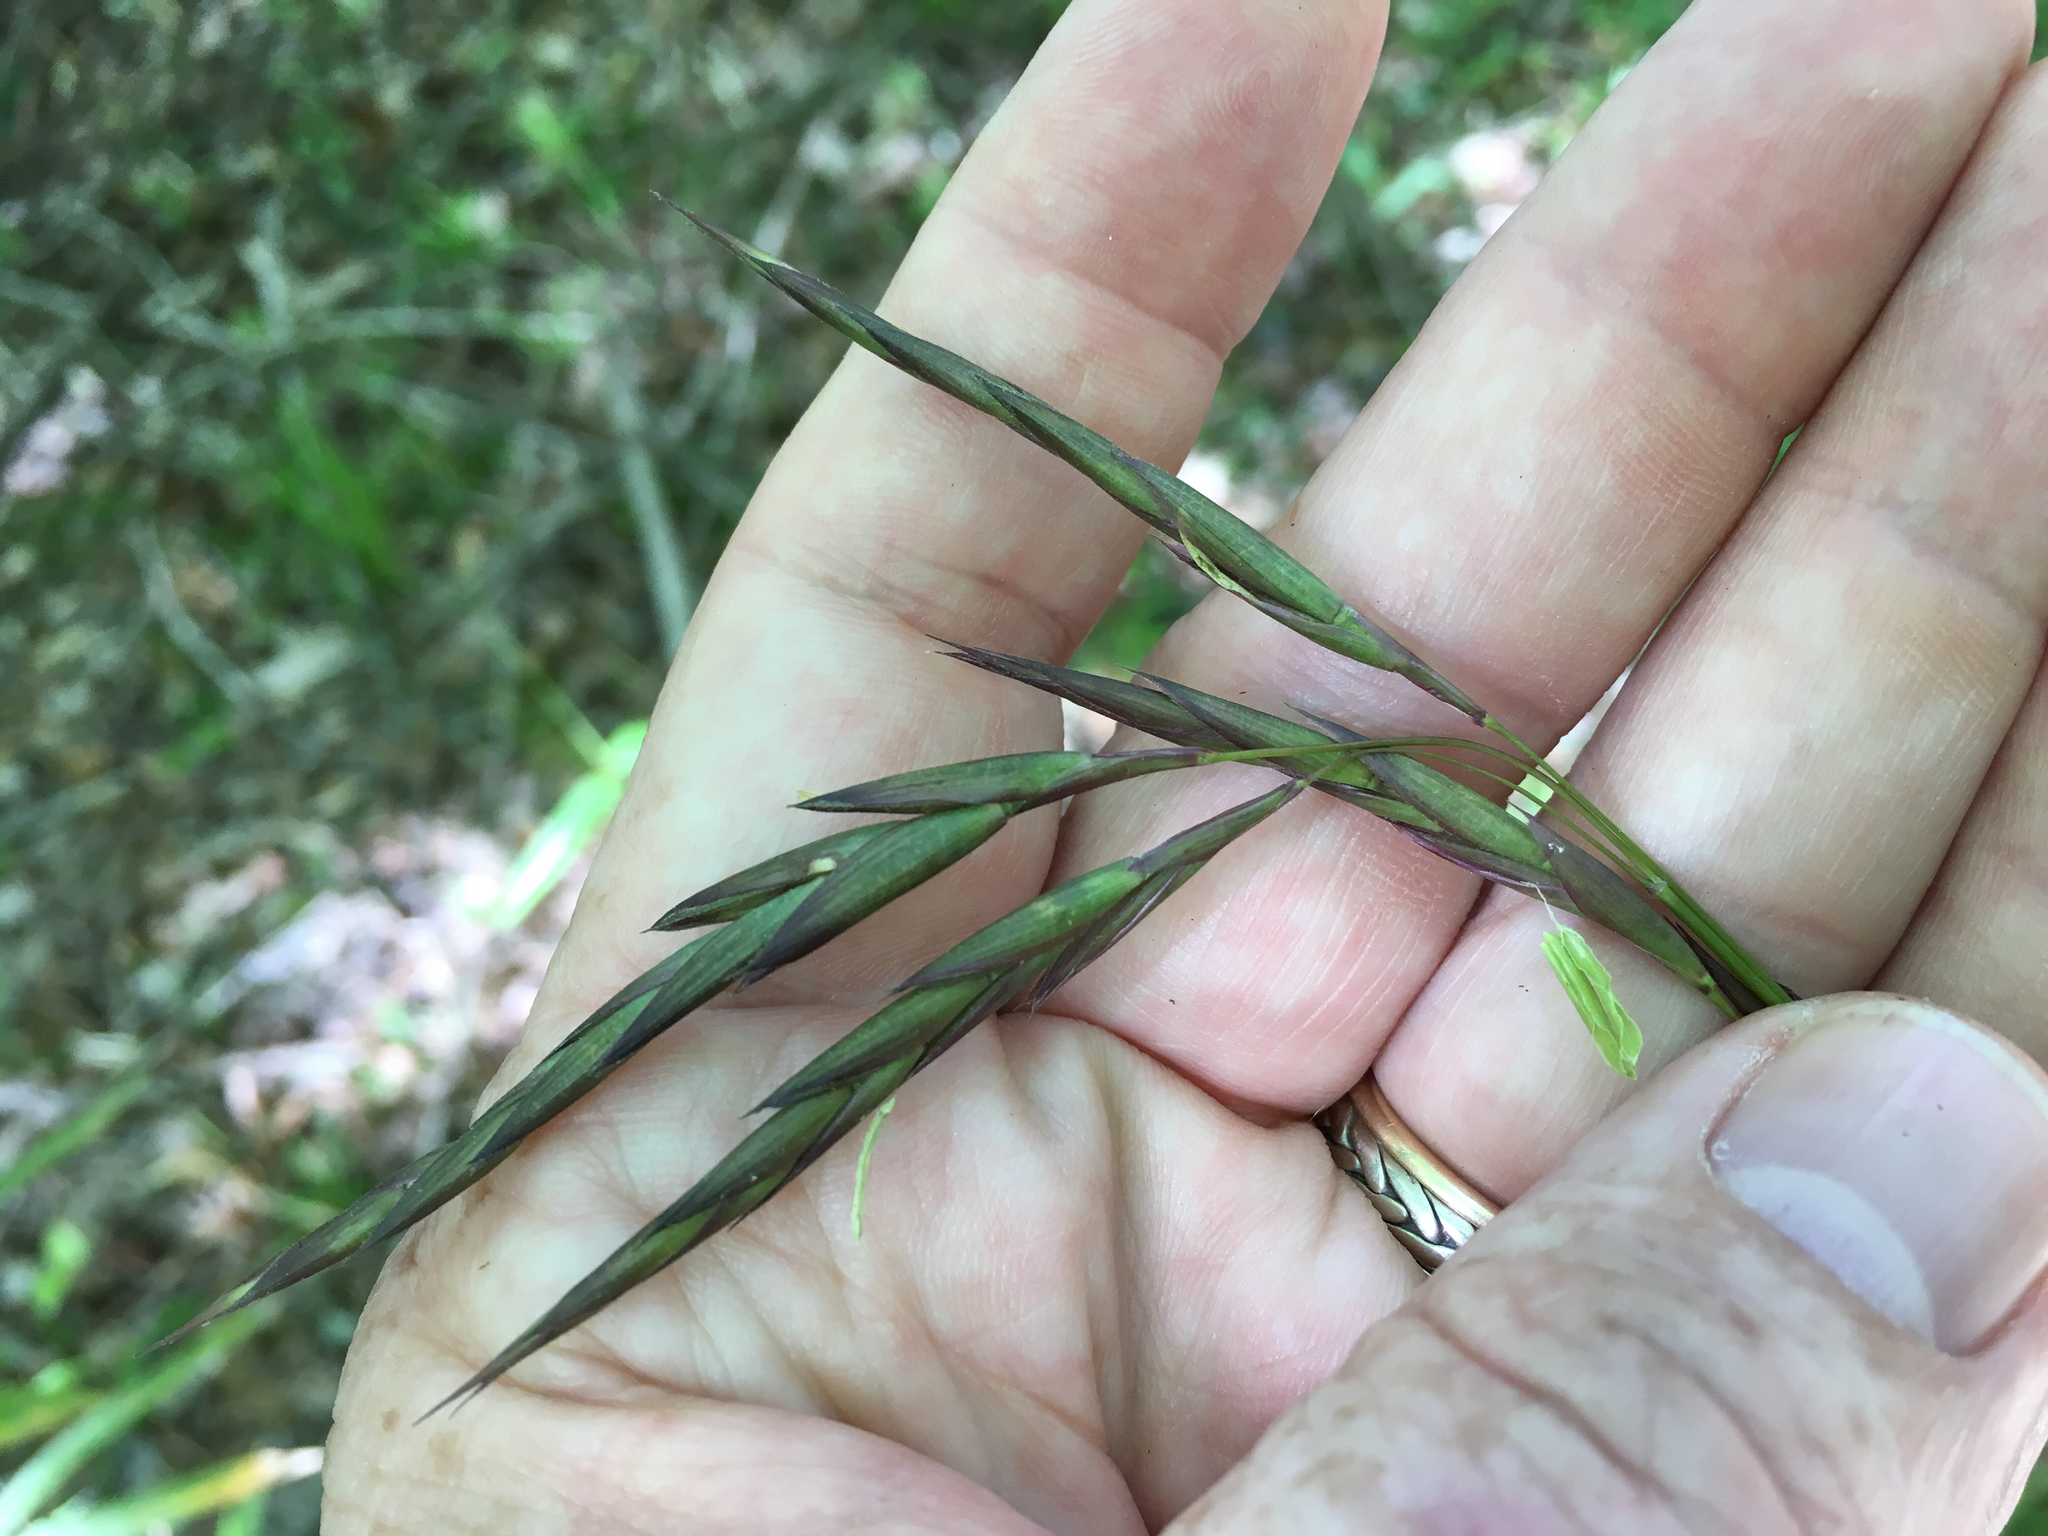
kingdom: Plantae
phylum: Tracheophyta
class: Liliopsida
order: Poales
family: Poaceae
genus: Arundinaria
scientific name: Arundinaria tecta
